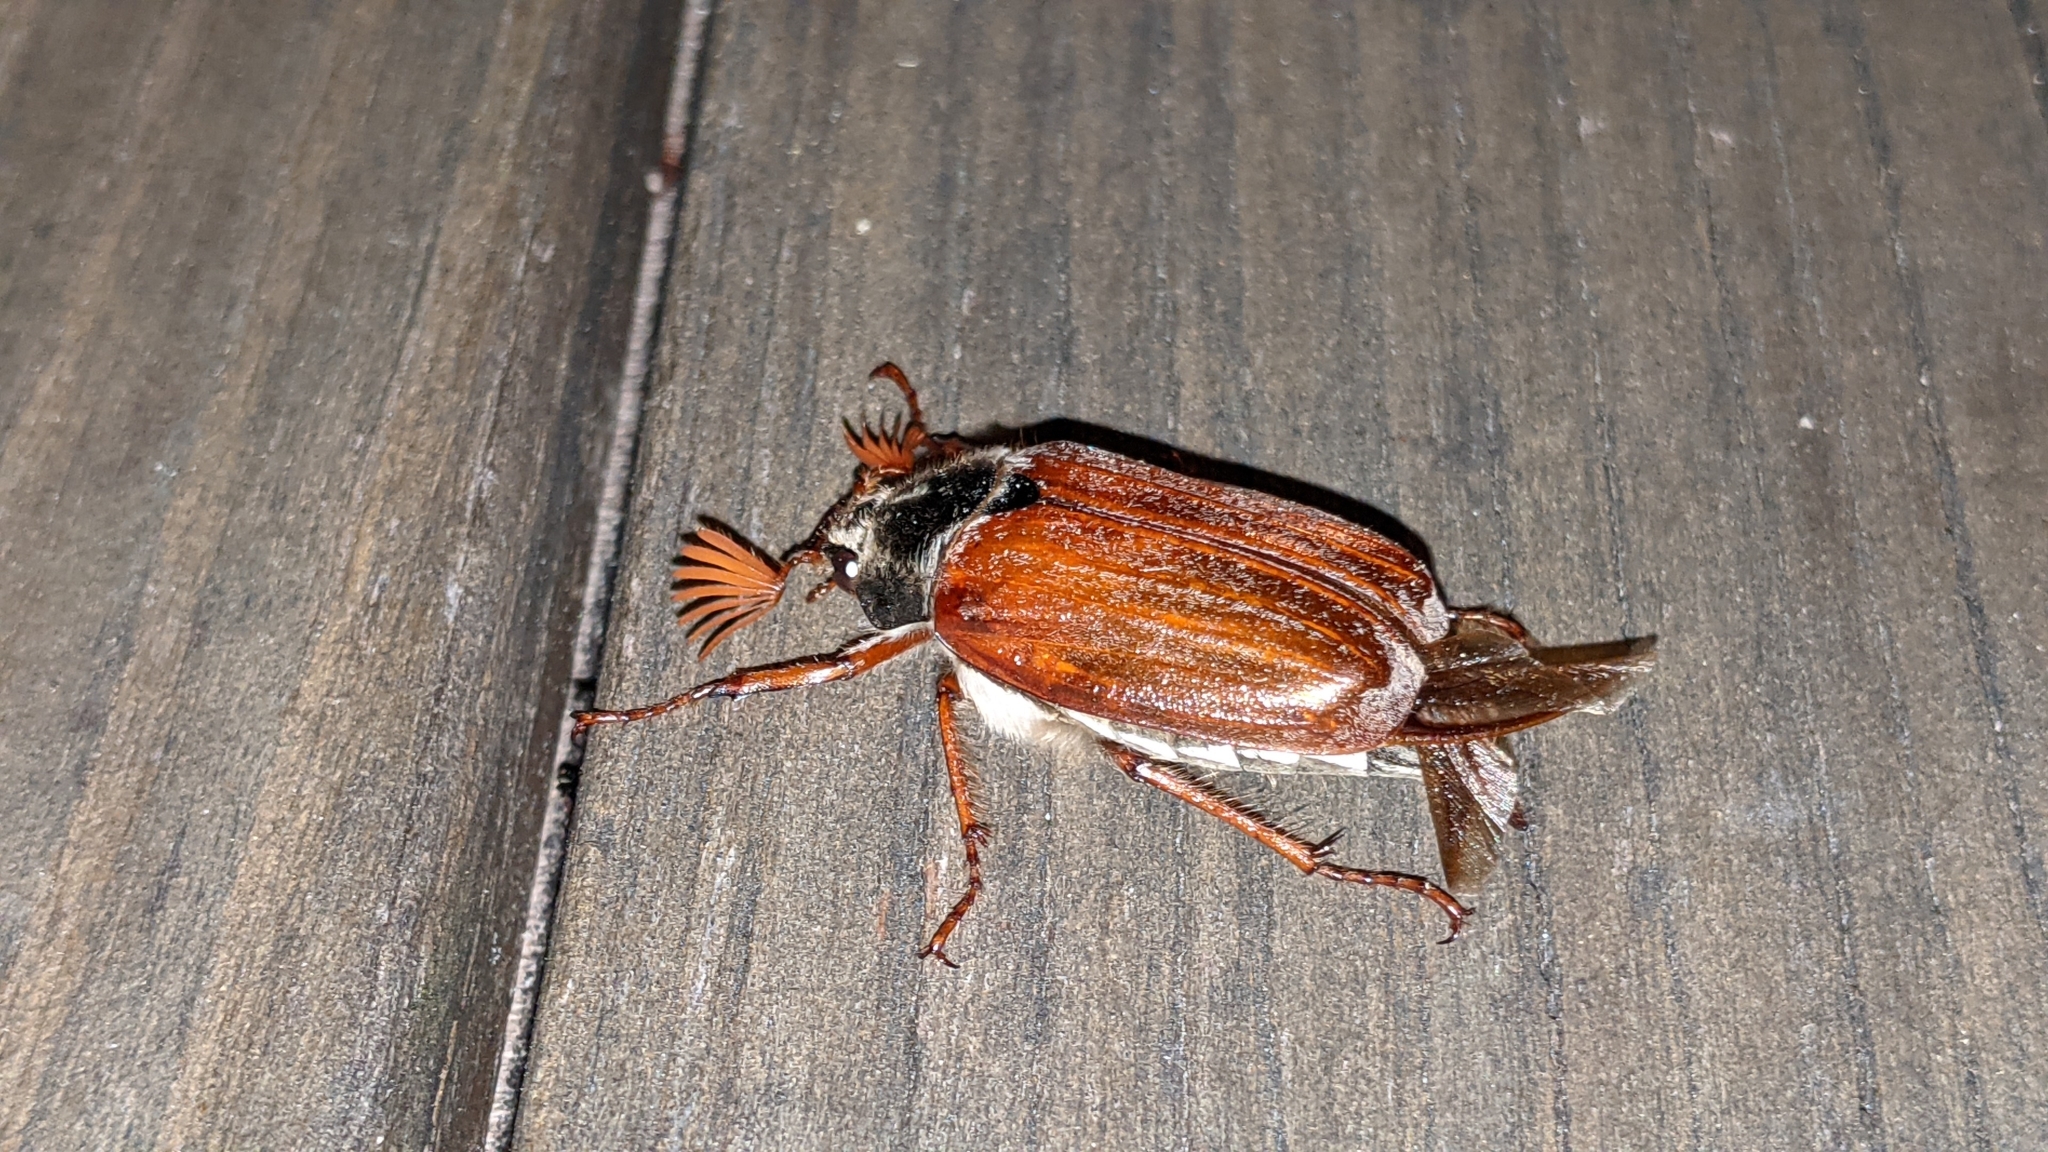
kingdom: Animalia
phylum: Arthropoda
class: Insecta
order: Coleoptera
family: Scarabaeidae
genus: Melolontha
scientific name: Melolontha melolontha
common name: Cockchafer maybeetle
